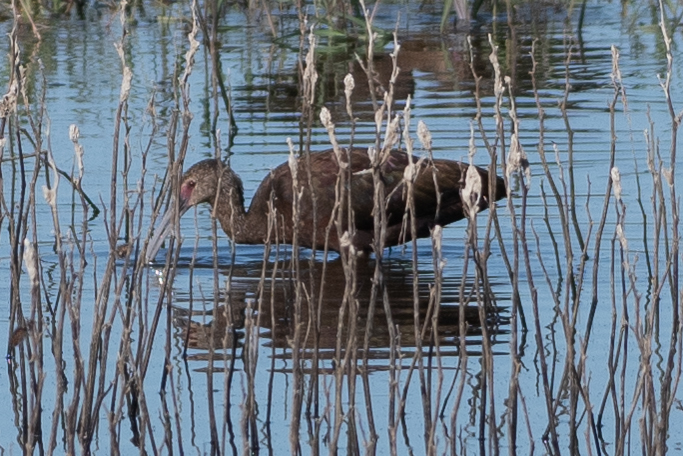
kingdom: Animalia
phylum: Chordata
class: Aves
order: Pelecaniformes
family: Threskiornithidae
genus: Plegadis
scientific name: Plegadis chihi
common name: White-faced ibis
